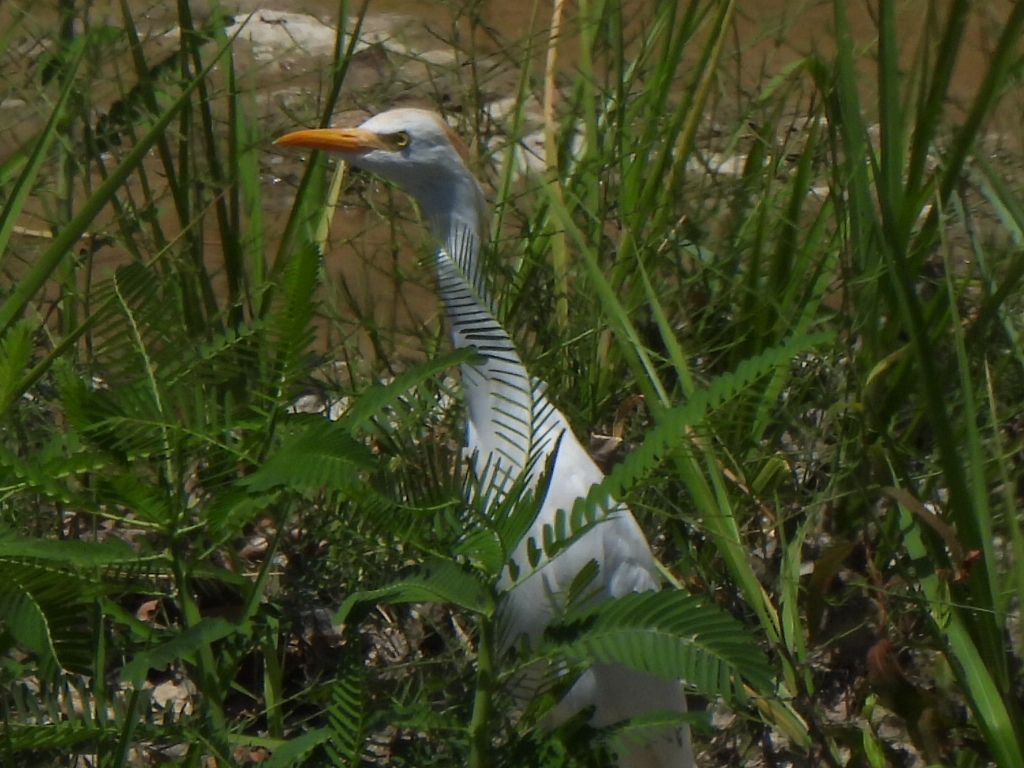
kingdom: Animalia
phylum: Chordata
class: Aves
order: Pelecaniformes
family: Ardeidae
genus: Bubulcus
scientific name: Bubulcus ibis
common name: Cattle egret
